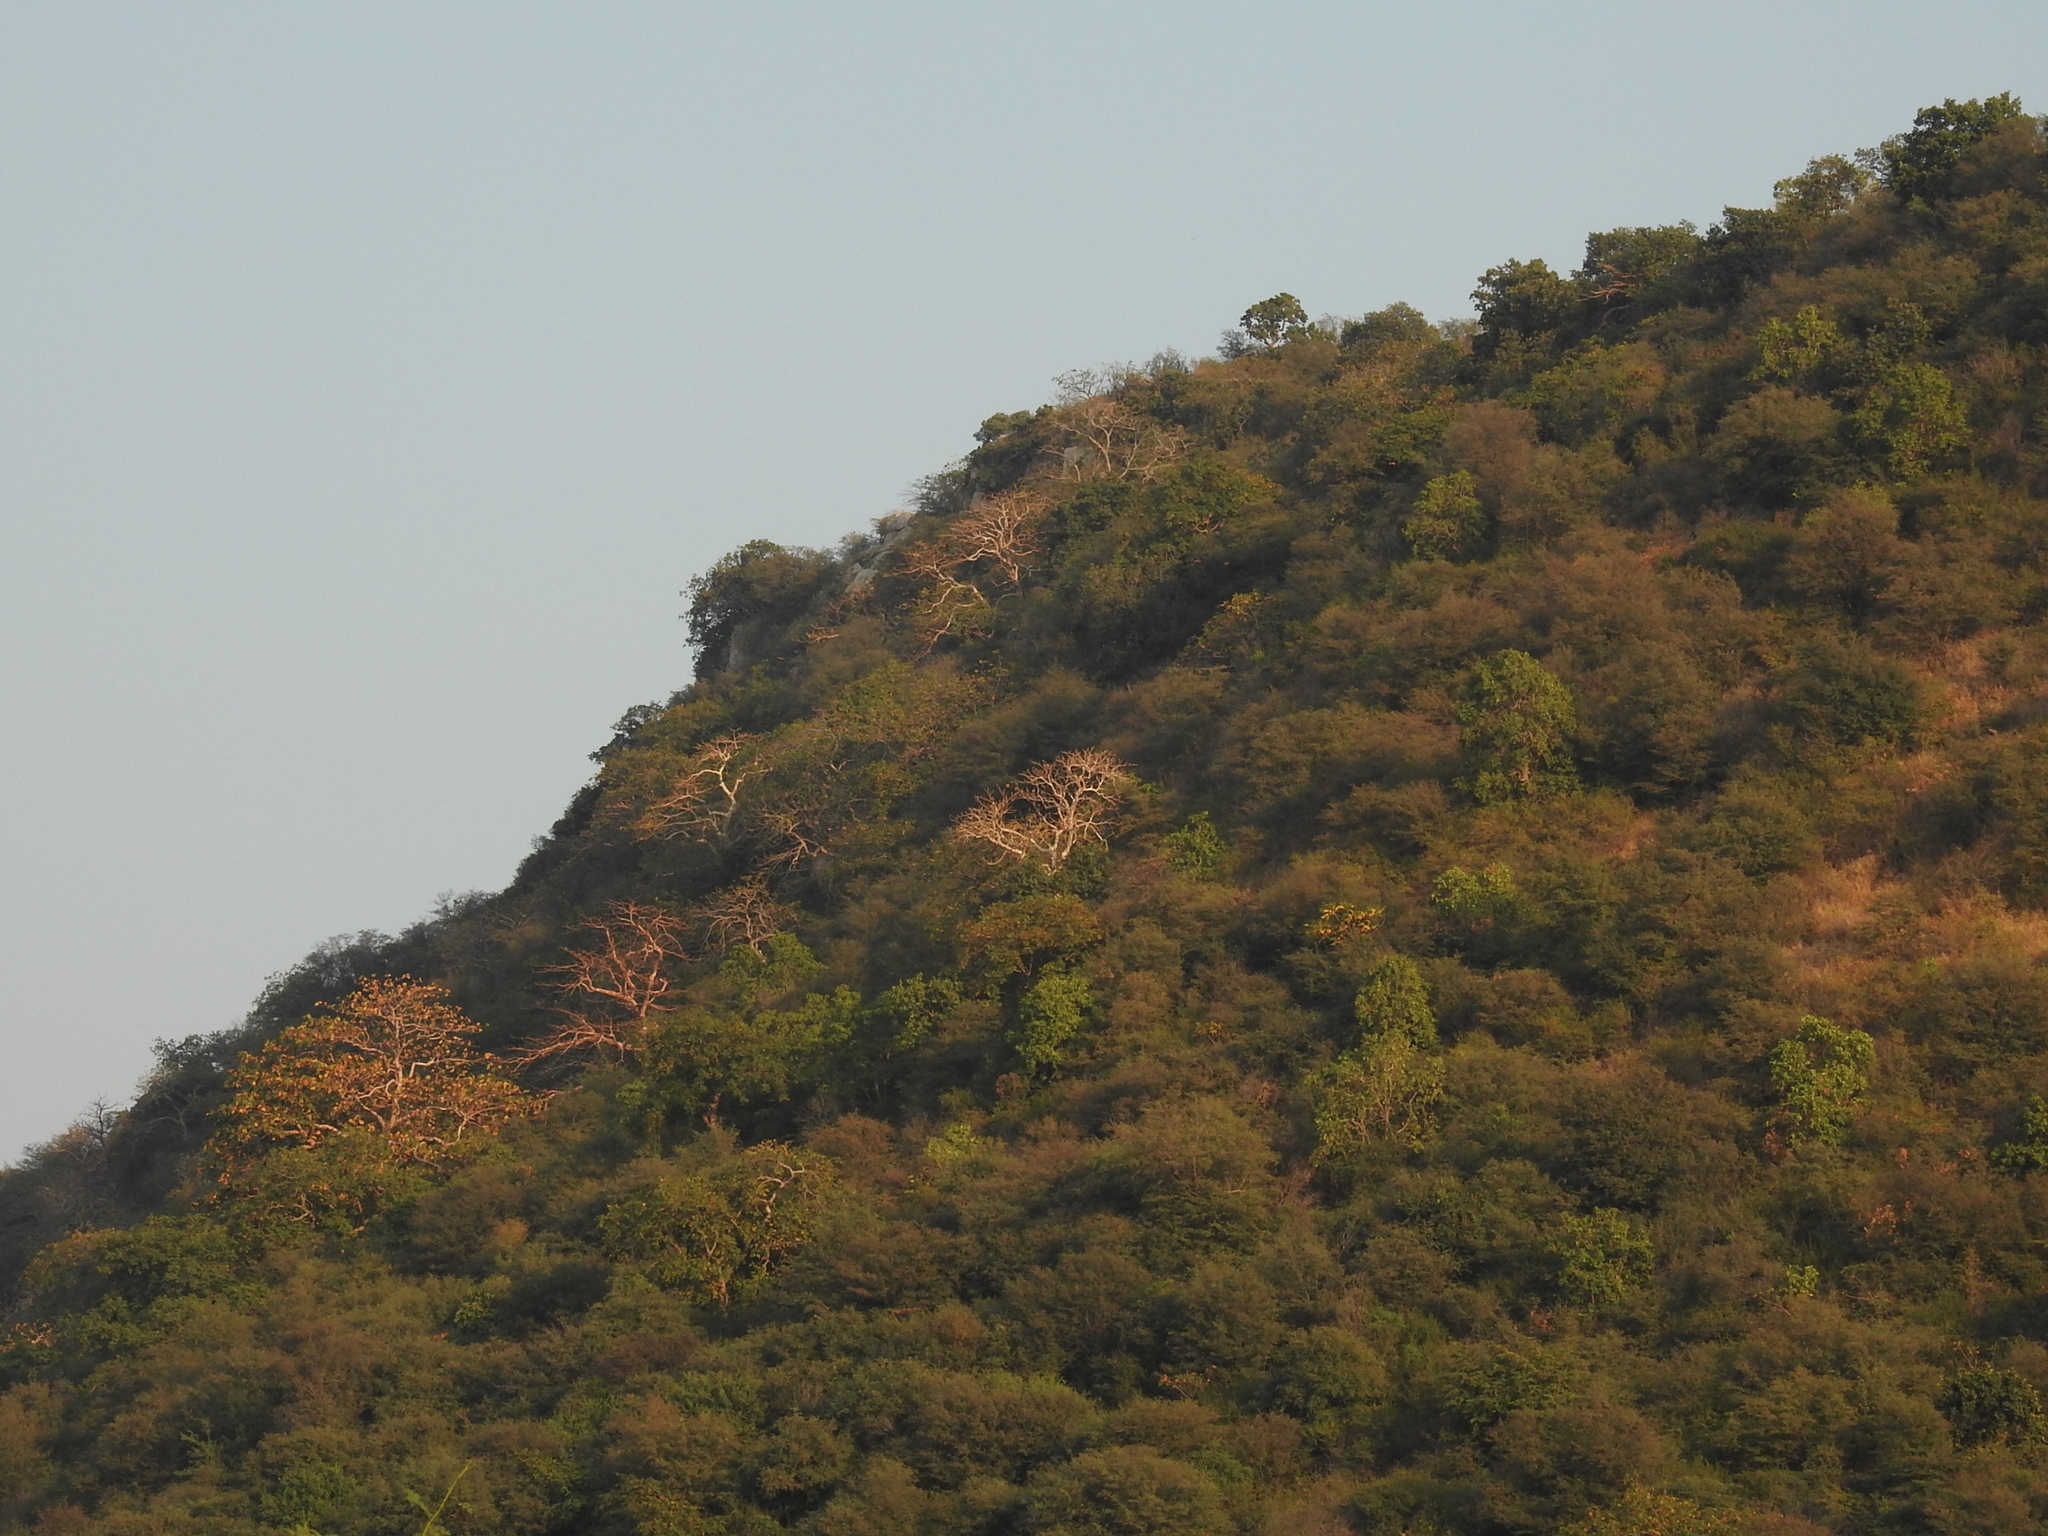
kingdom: Plantae
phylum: Tracheophyta
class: Magnoliopsida
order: Myrtales
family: Combretaceae
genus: Terminalia
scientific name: Terminalia pendula
